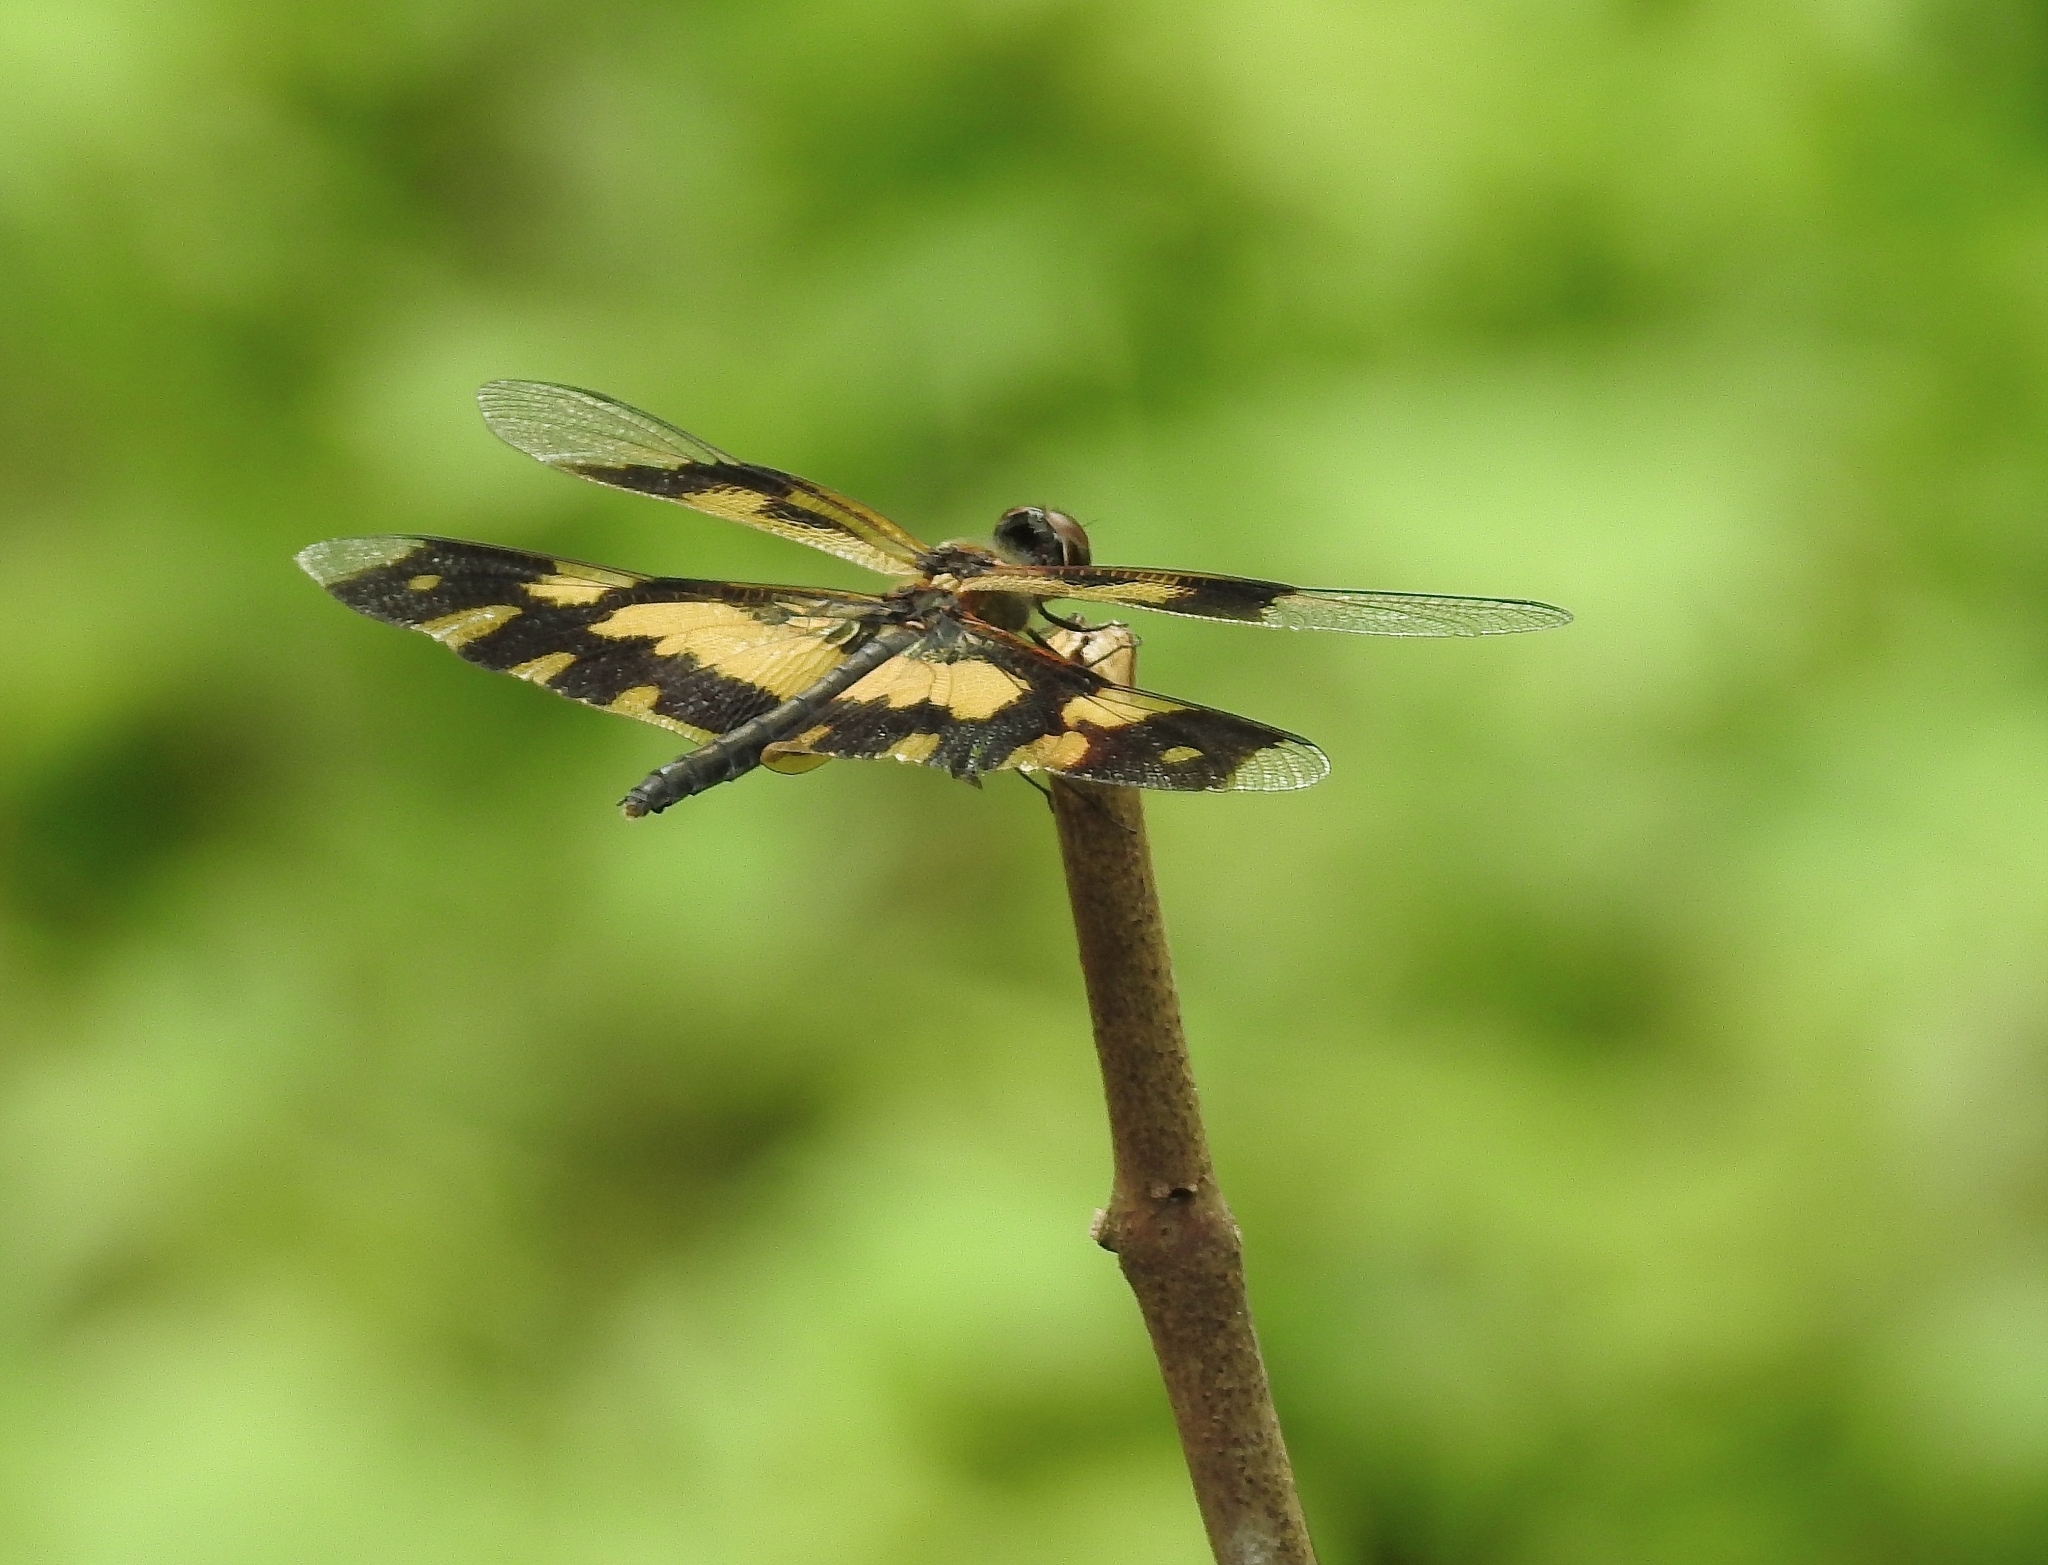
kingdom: Animalia
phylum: Arthropoda
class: Insecta
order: Odonata
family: Libellulidae
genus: Rhyothemis
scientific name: Rhyothemis variegata
